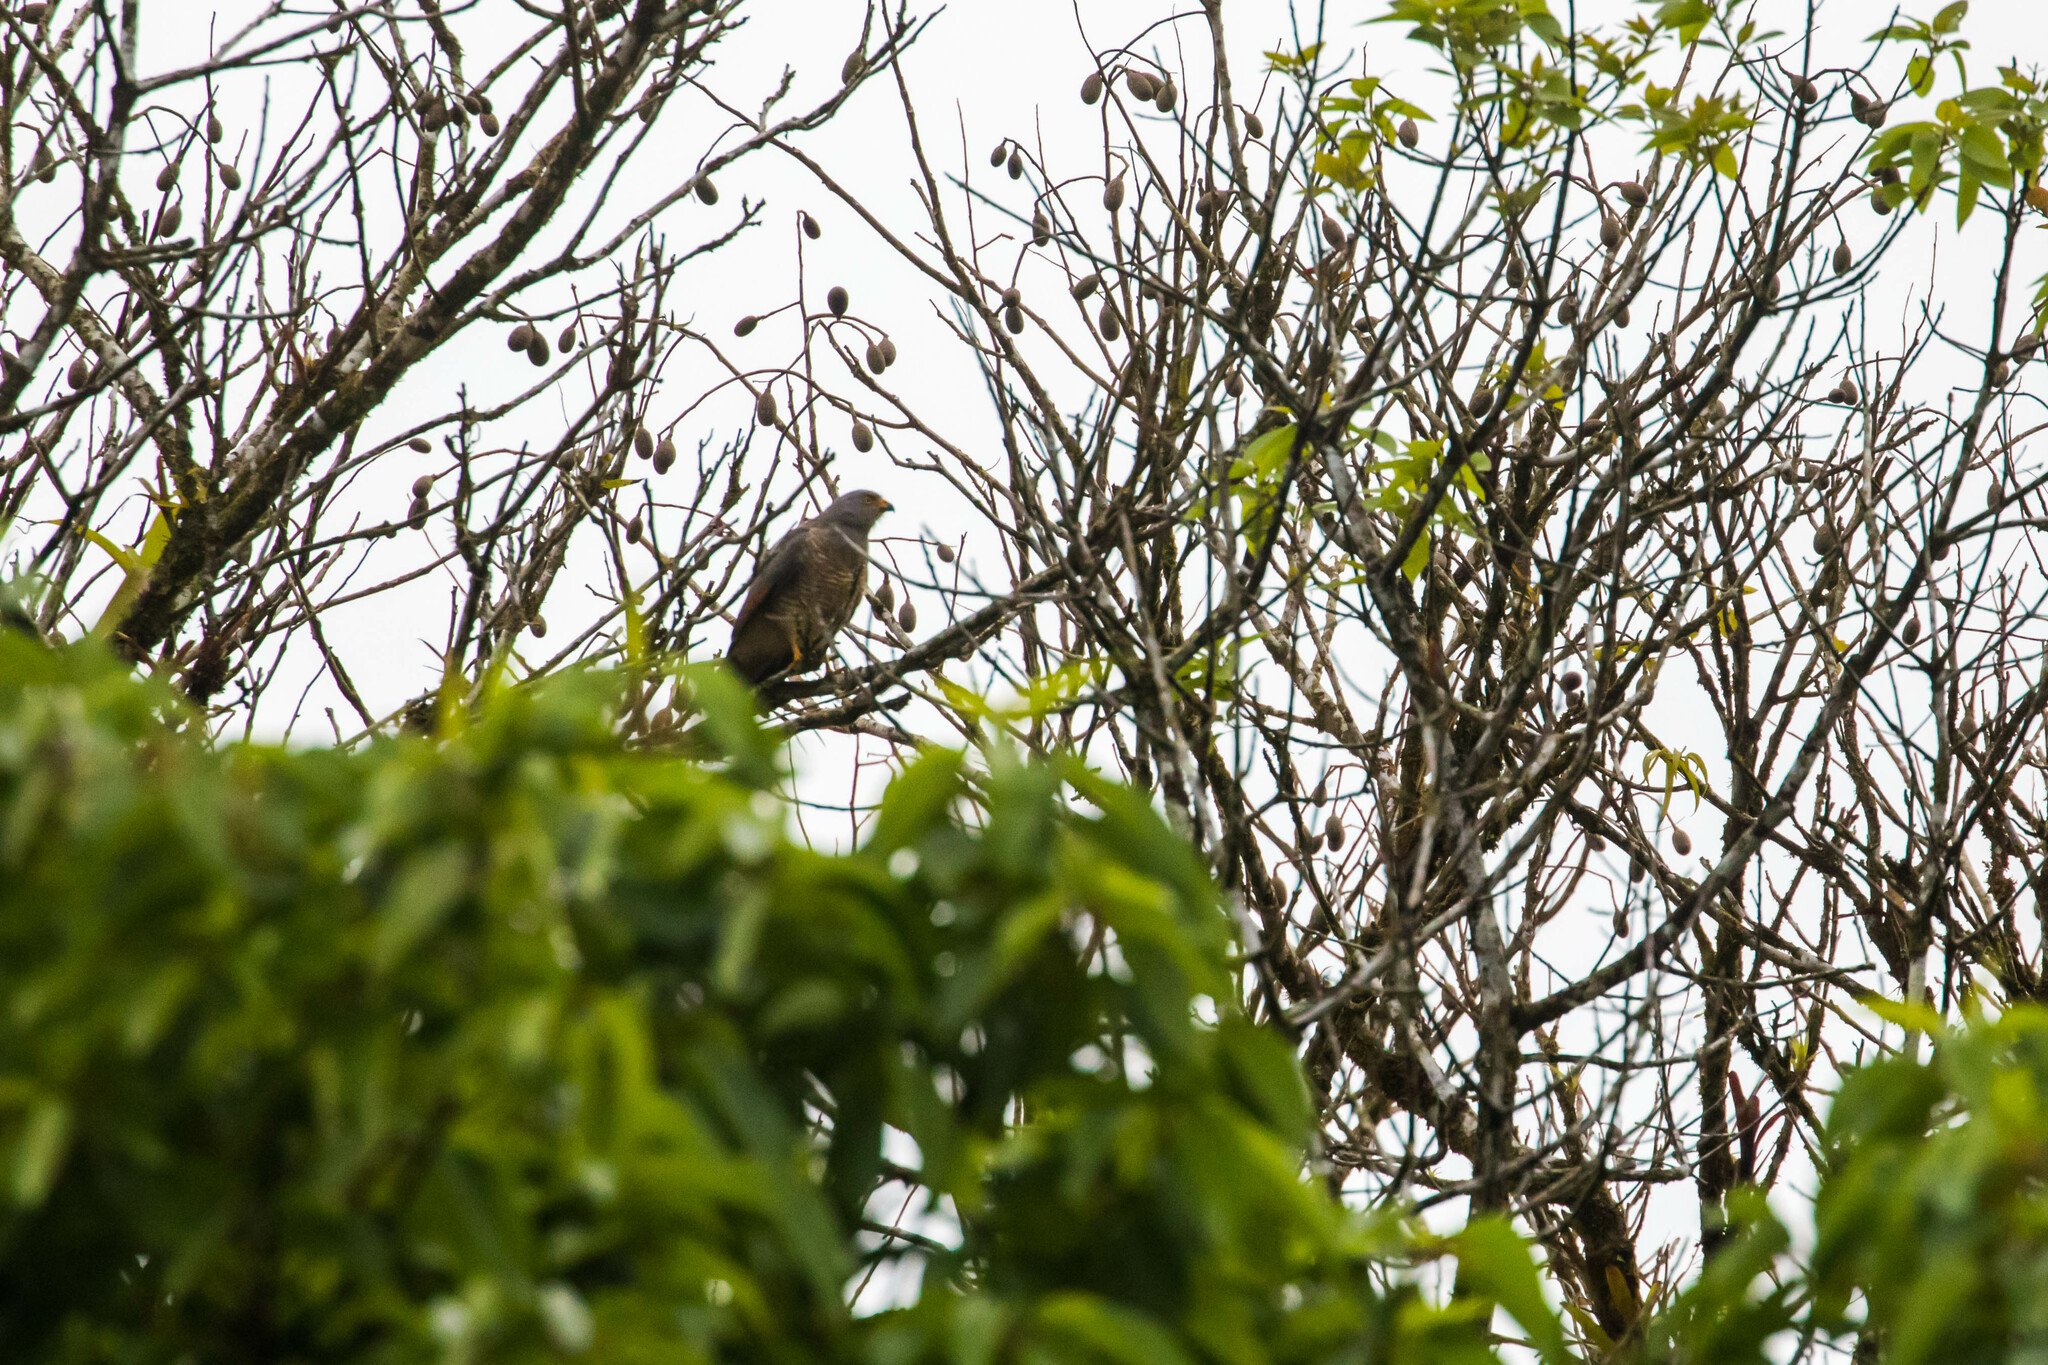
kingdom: Animalia
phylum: Chordata
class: Aves
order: Accipitriformes
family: Accipitridae
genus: Rupornis
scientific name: Rupornis magnirostris
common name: Roadside hawk
